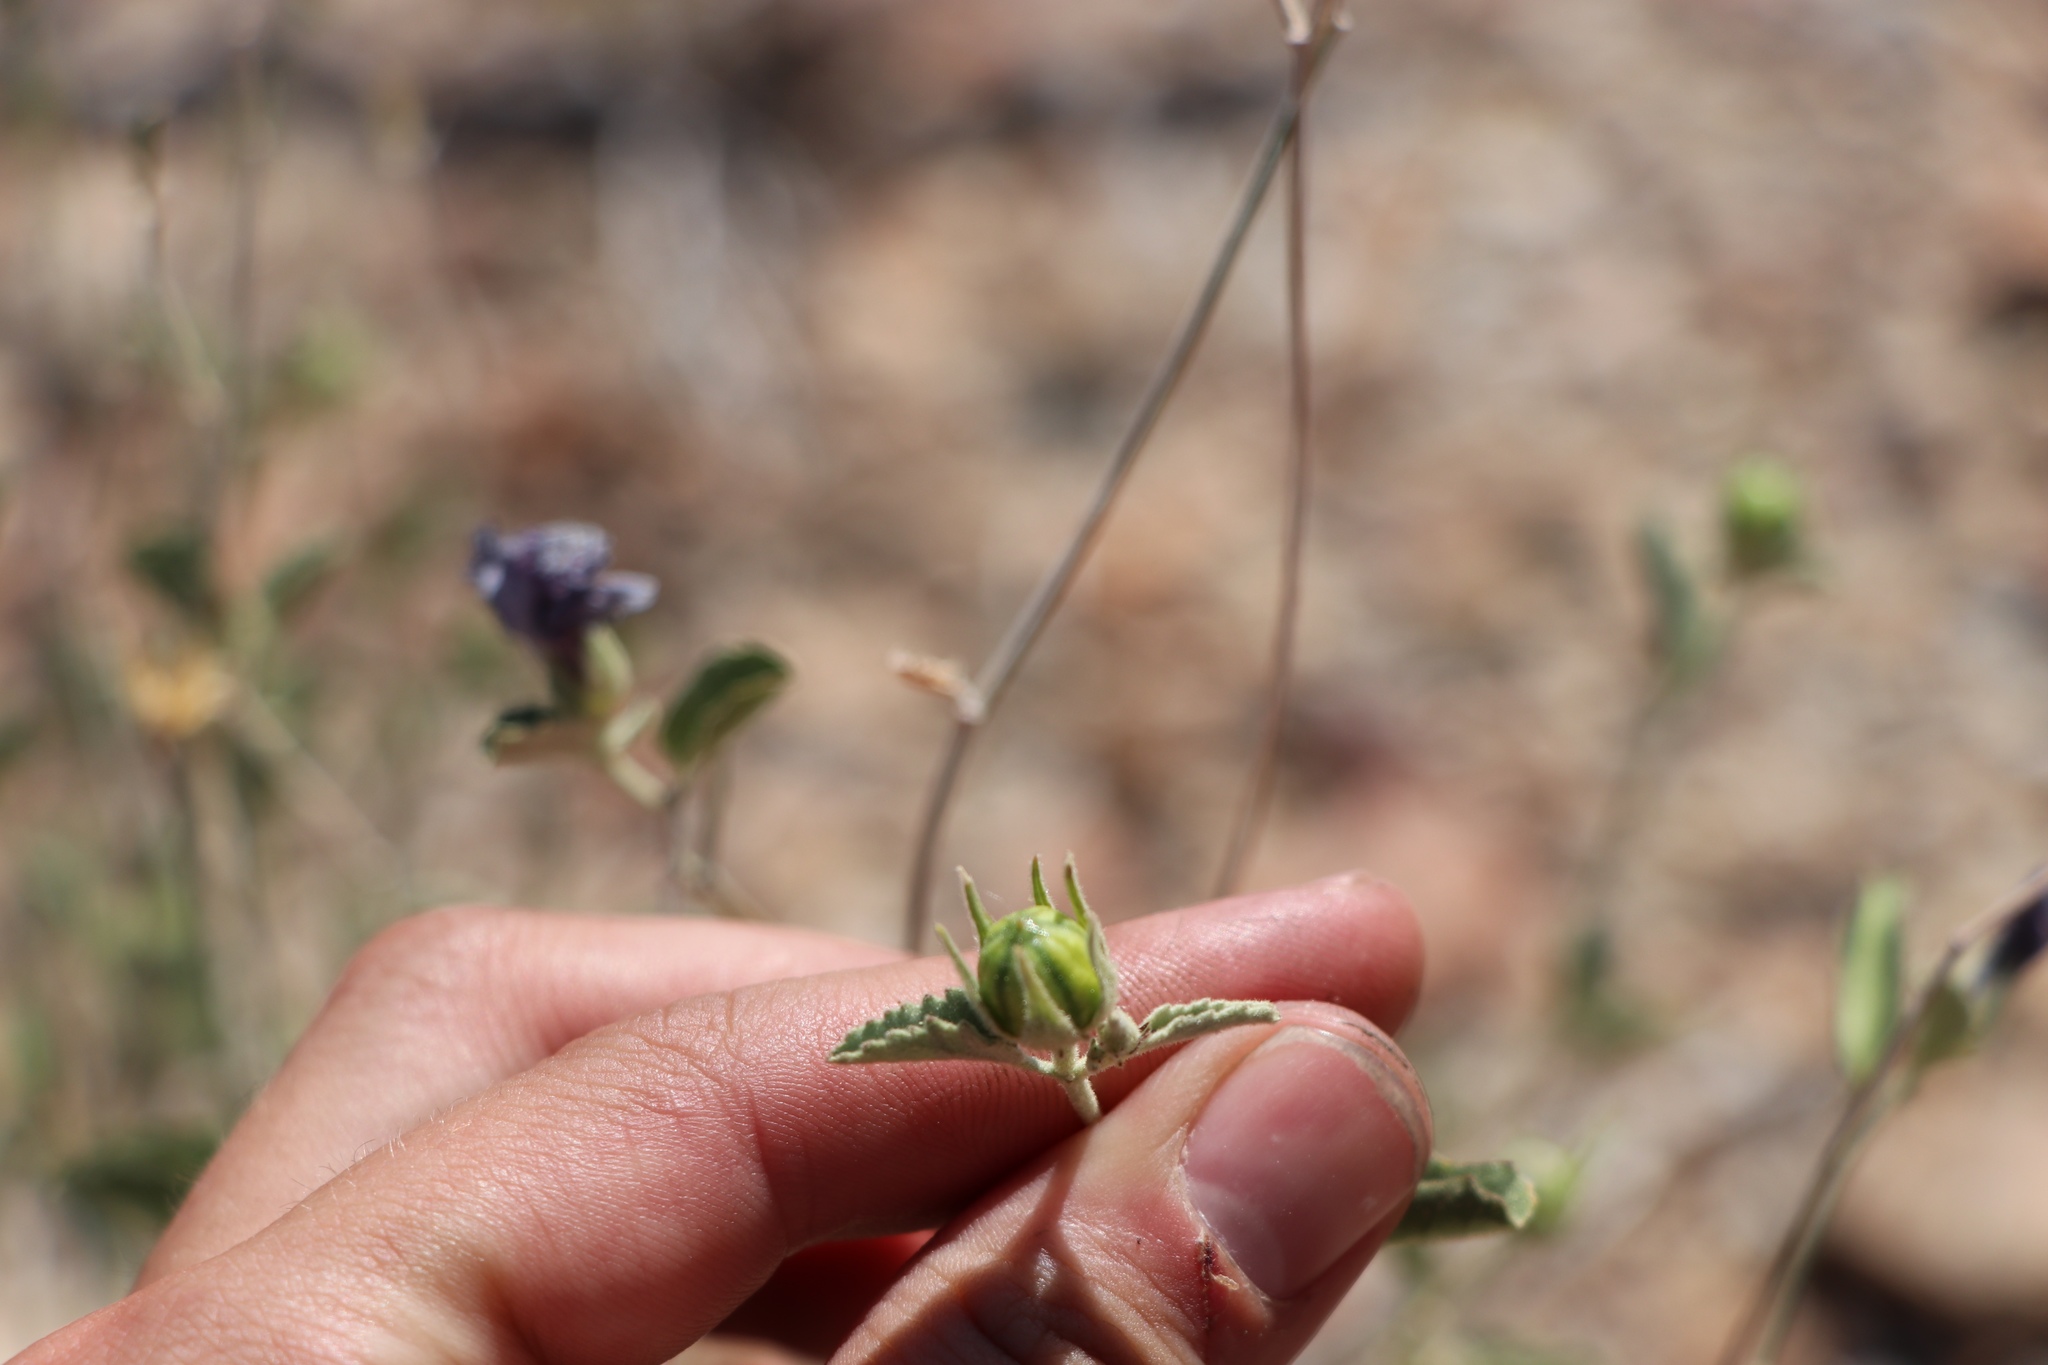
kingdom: Plantae
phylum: Tracheophyta
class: Magnoliopsida
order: Malvales
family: Malvaceae
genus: Hibiscus
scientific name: Hibiscus denudatus
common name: Paleface
